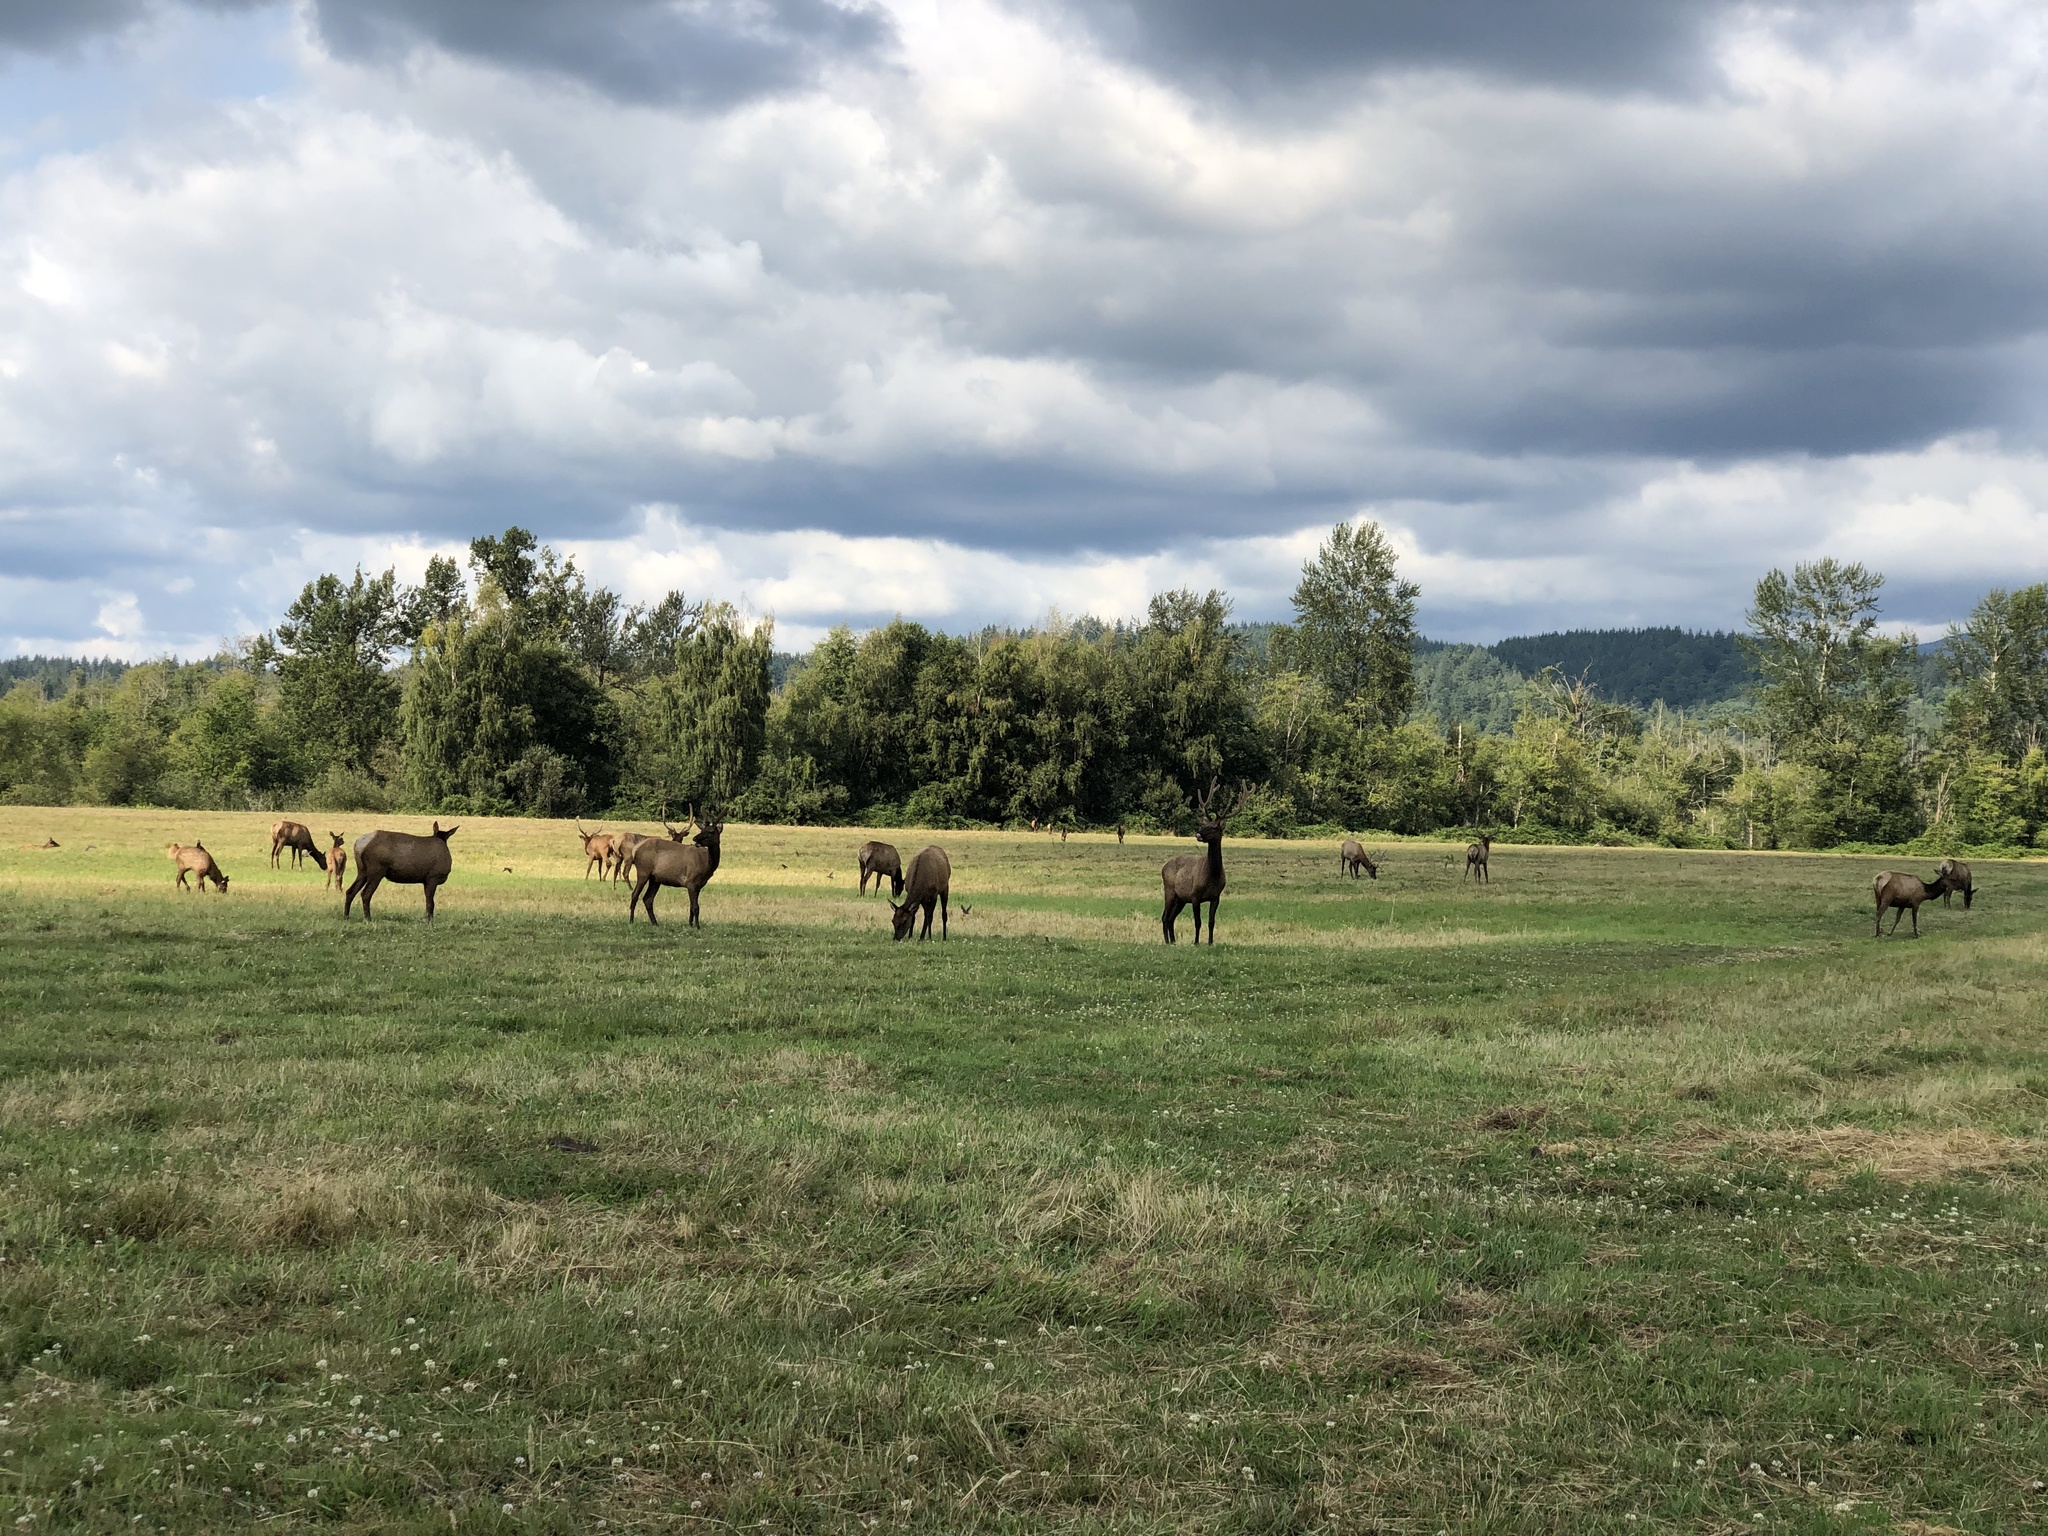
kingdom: Animalia
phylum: Chordata
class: Mammalia
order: Artiodactyla
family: Cervidae
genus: Cervus
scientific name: Cervus elaphus
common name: Red deer
